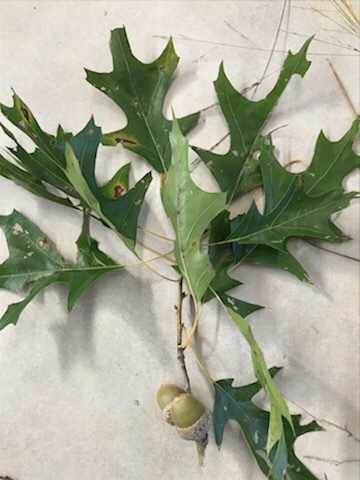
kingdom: Plantae
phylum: Tracheophyta
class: Magnoliopsida
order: Fagales
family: Fagaceae
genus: Quercus
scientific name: Quercus texana
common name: Nuttall oak
